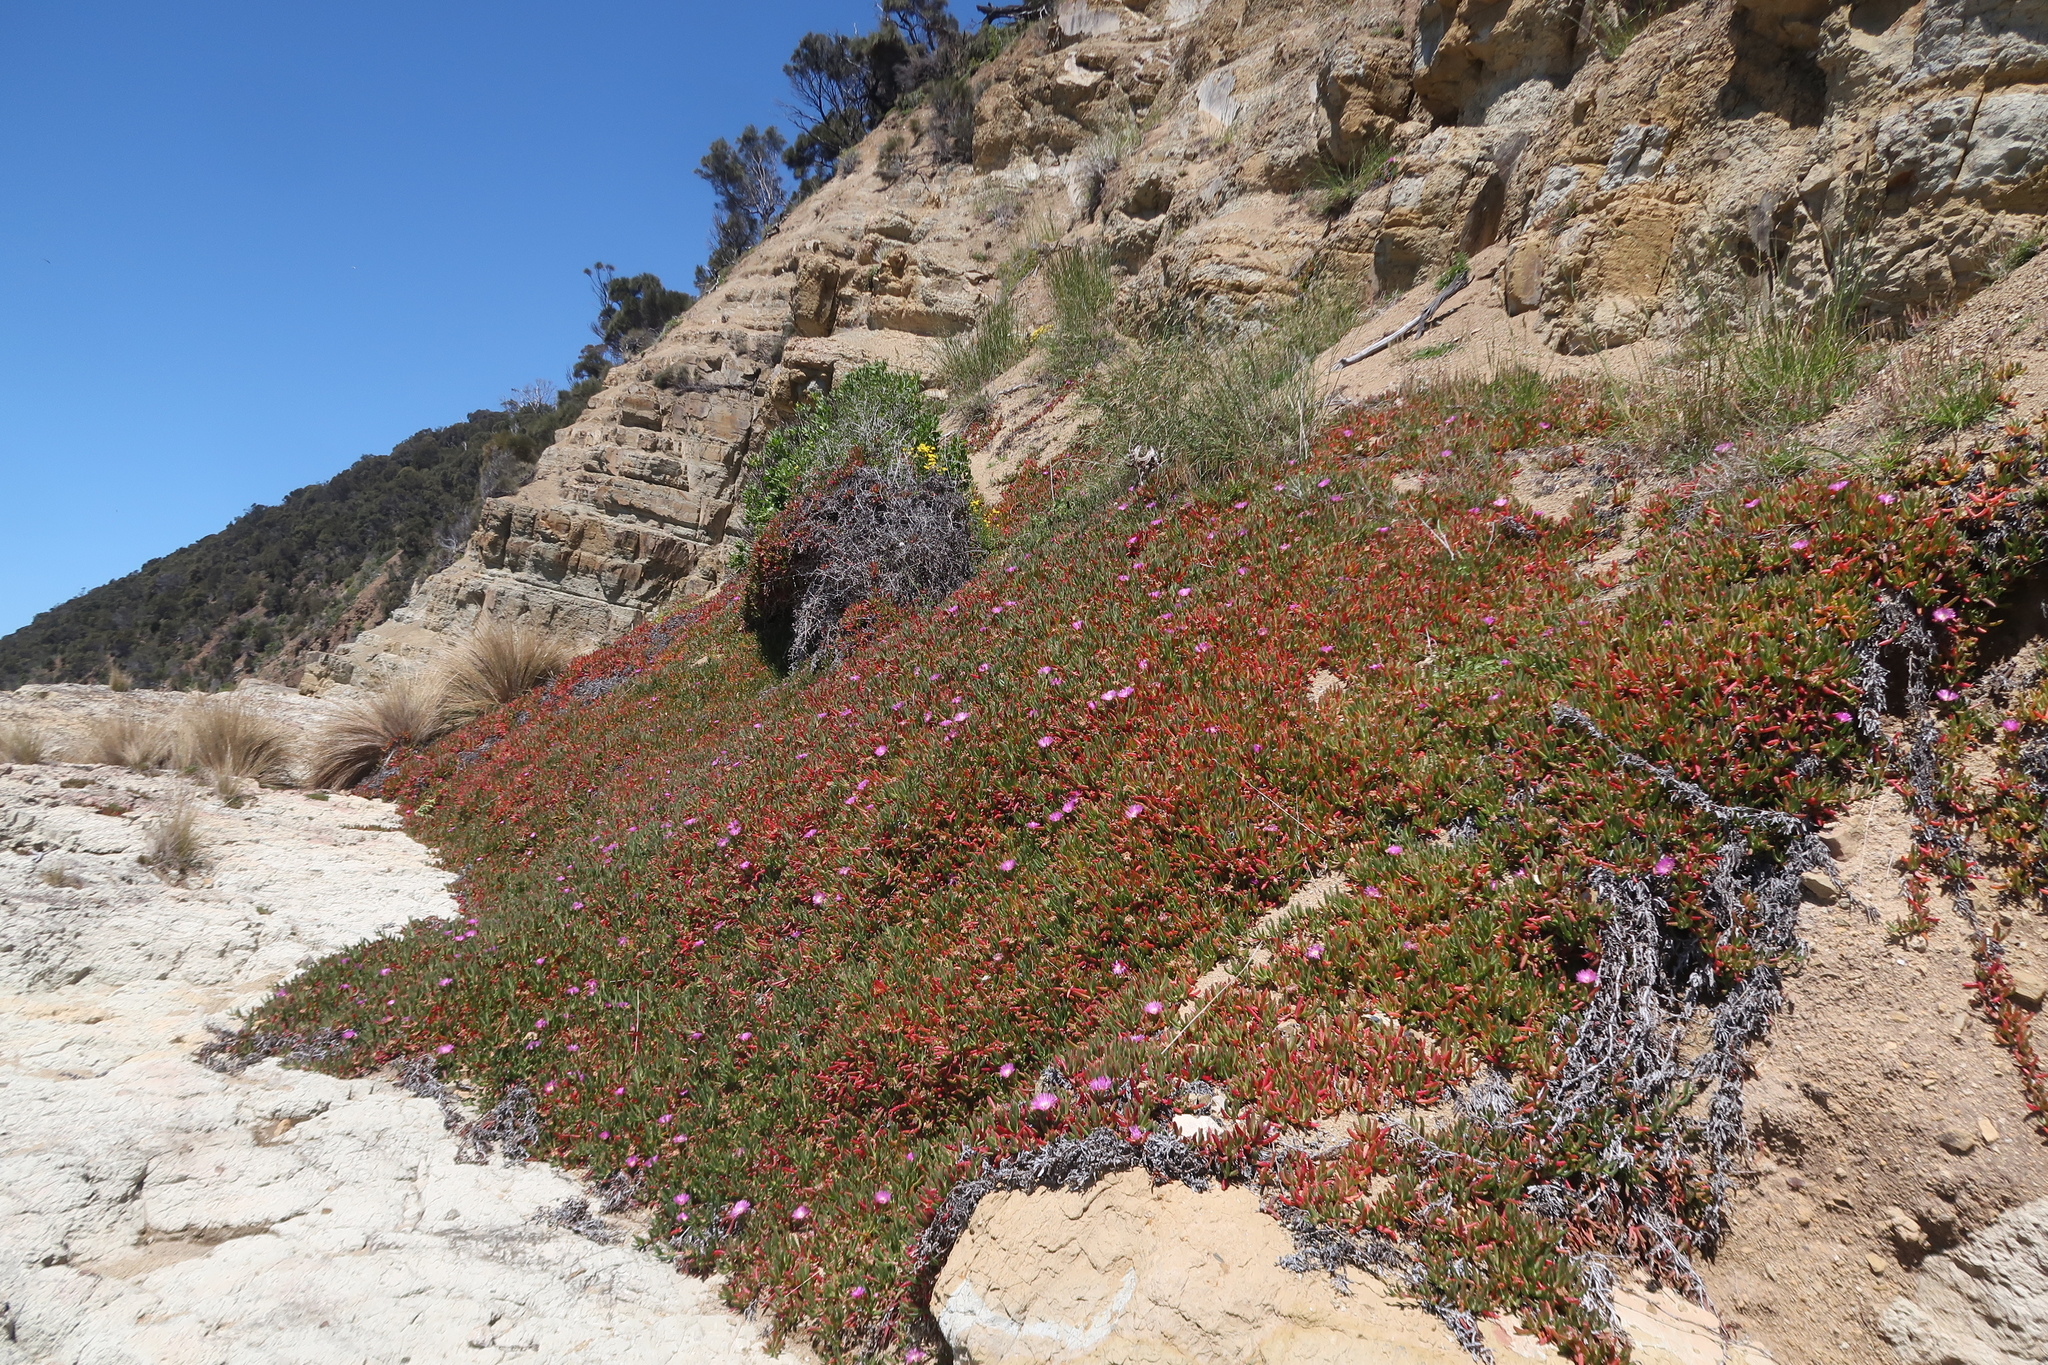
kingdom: Plantae
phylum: Tracheophyta
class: Magnoliopsida
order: Caryophyllales
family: Aizoaceae
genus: Carpobrotus
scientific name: Carpobrotus rossii
